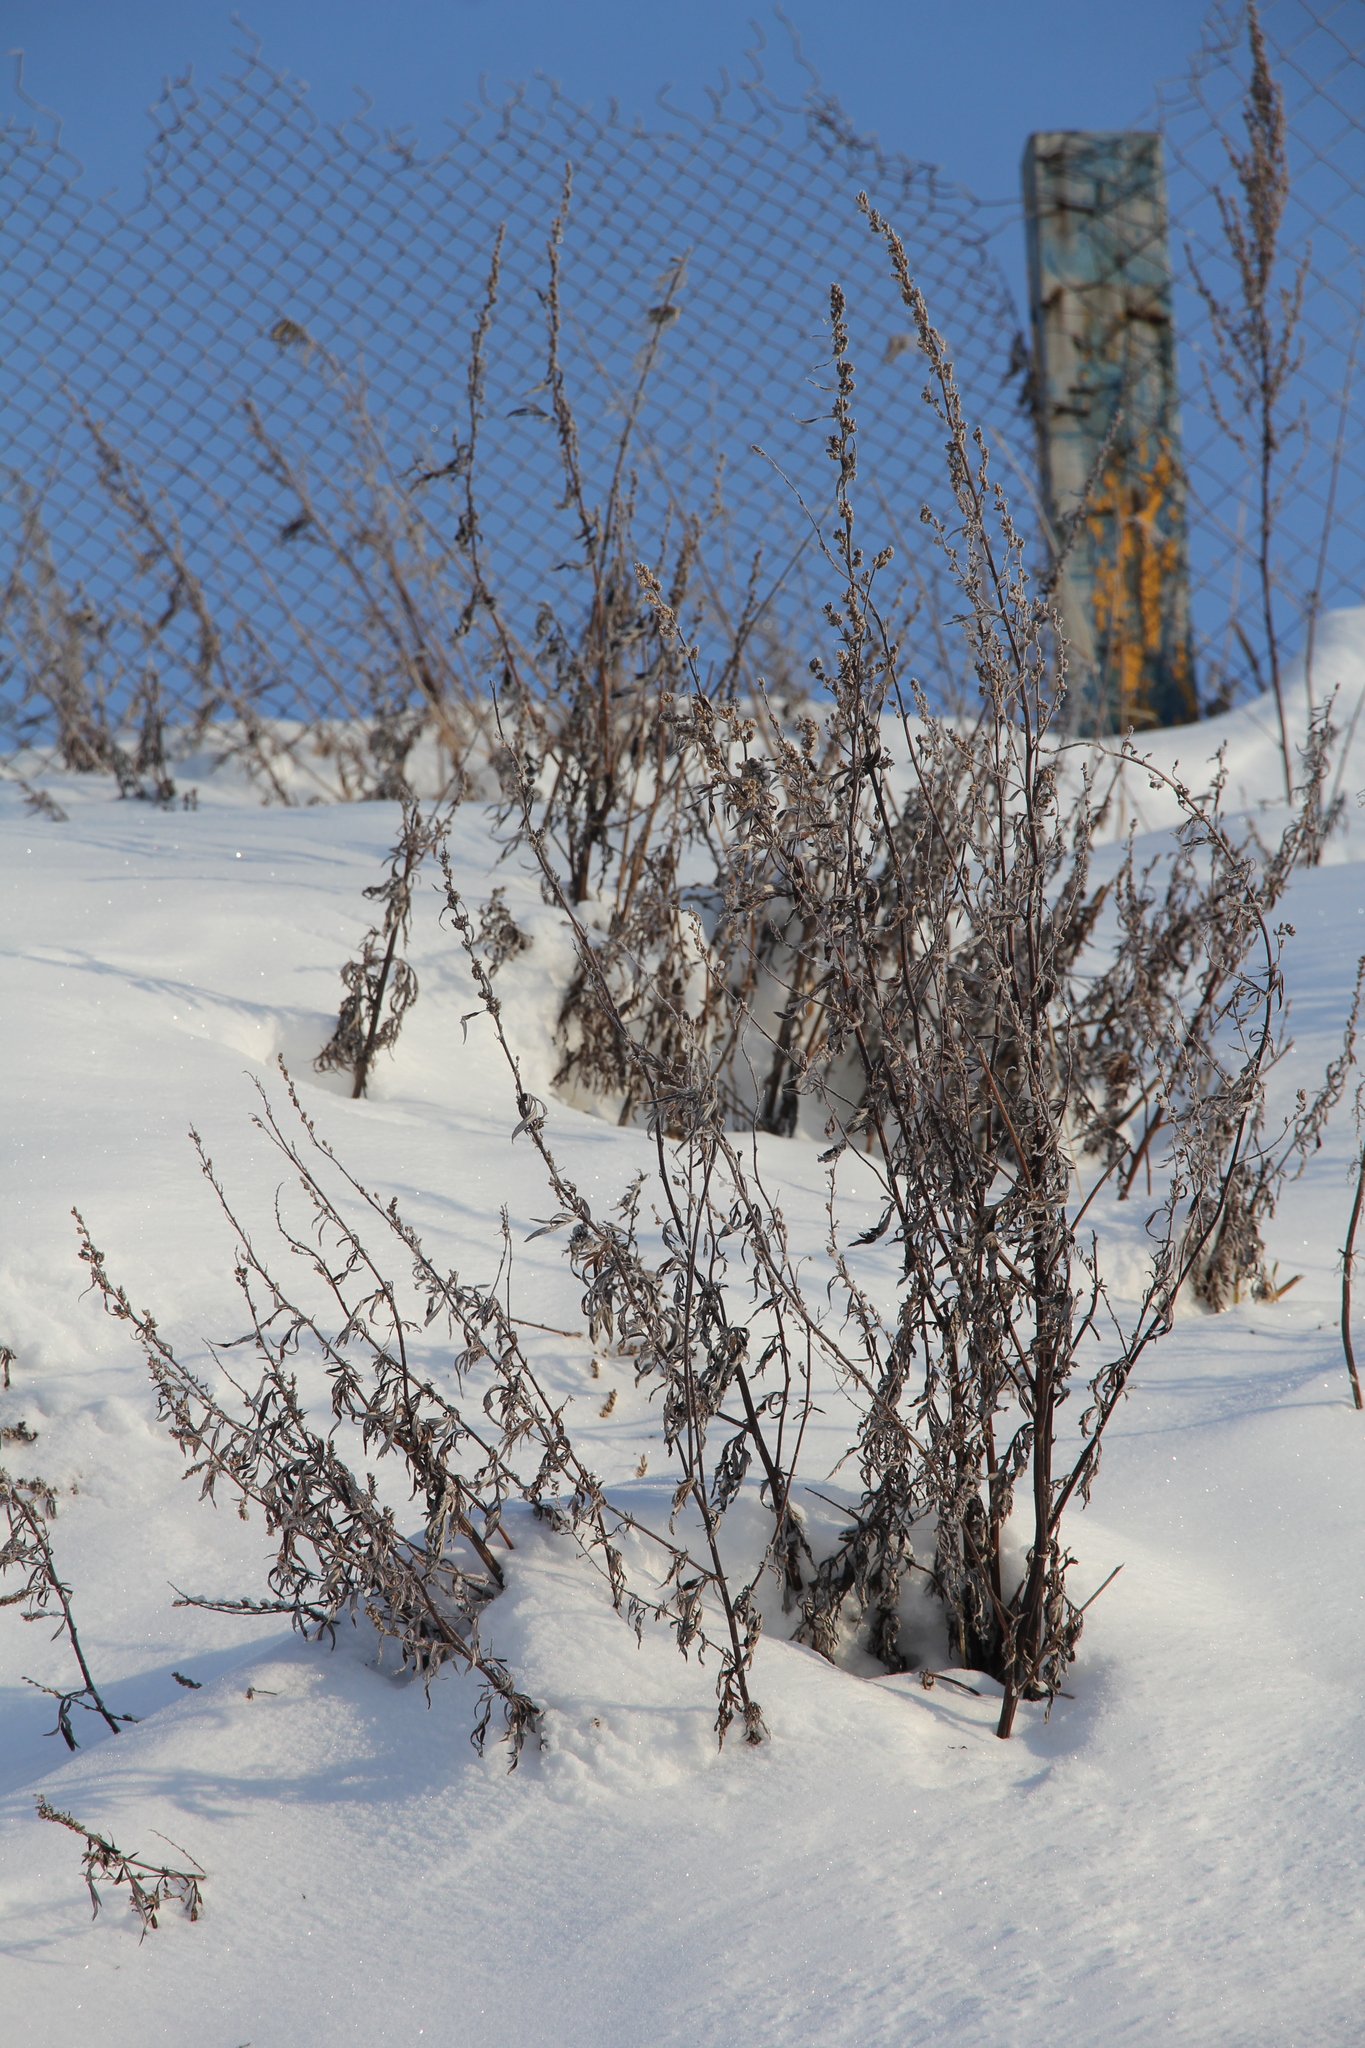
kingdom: Plantae
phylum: Tracheophyta
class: Magnoliopsida
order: Asterales
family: Asteraceae
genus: Artemisia
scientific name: Artemisia vulgaris
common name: Mugwort
